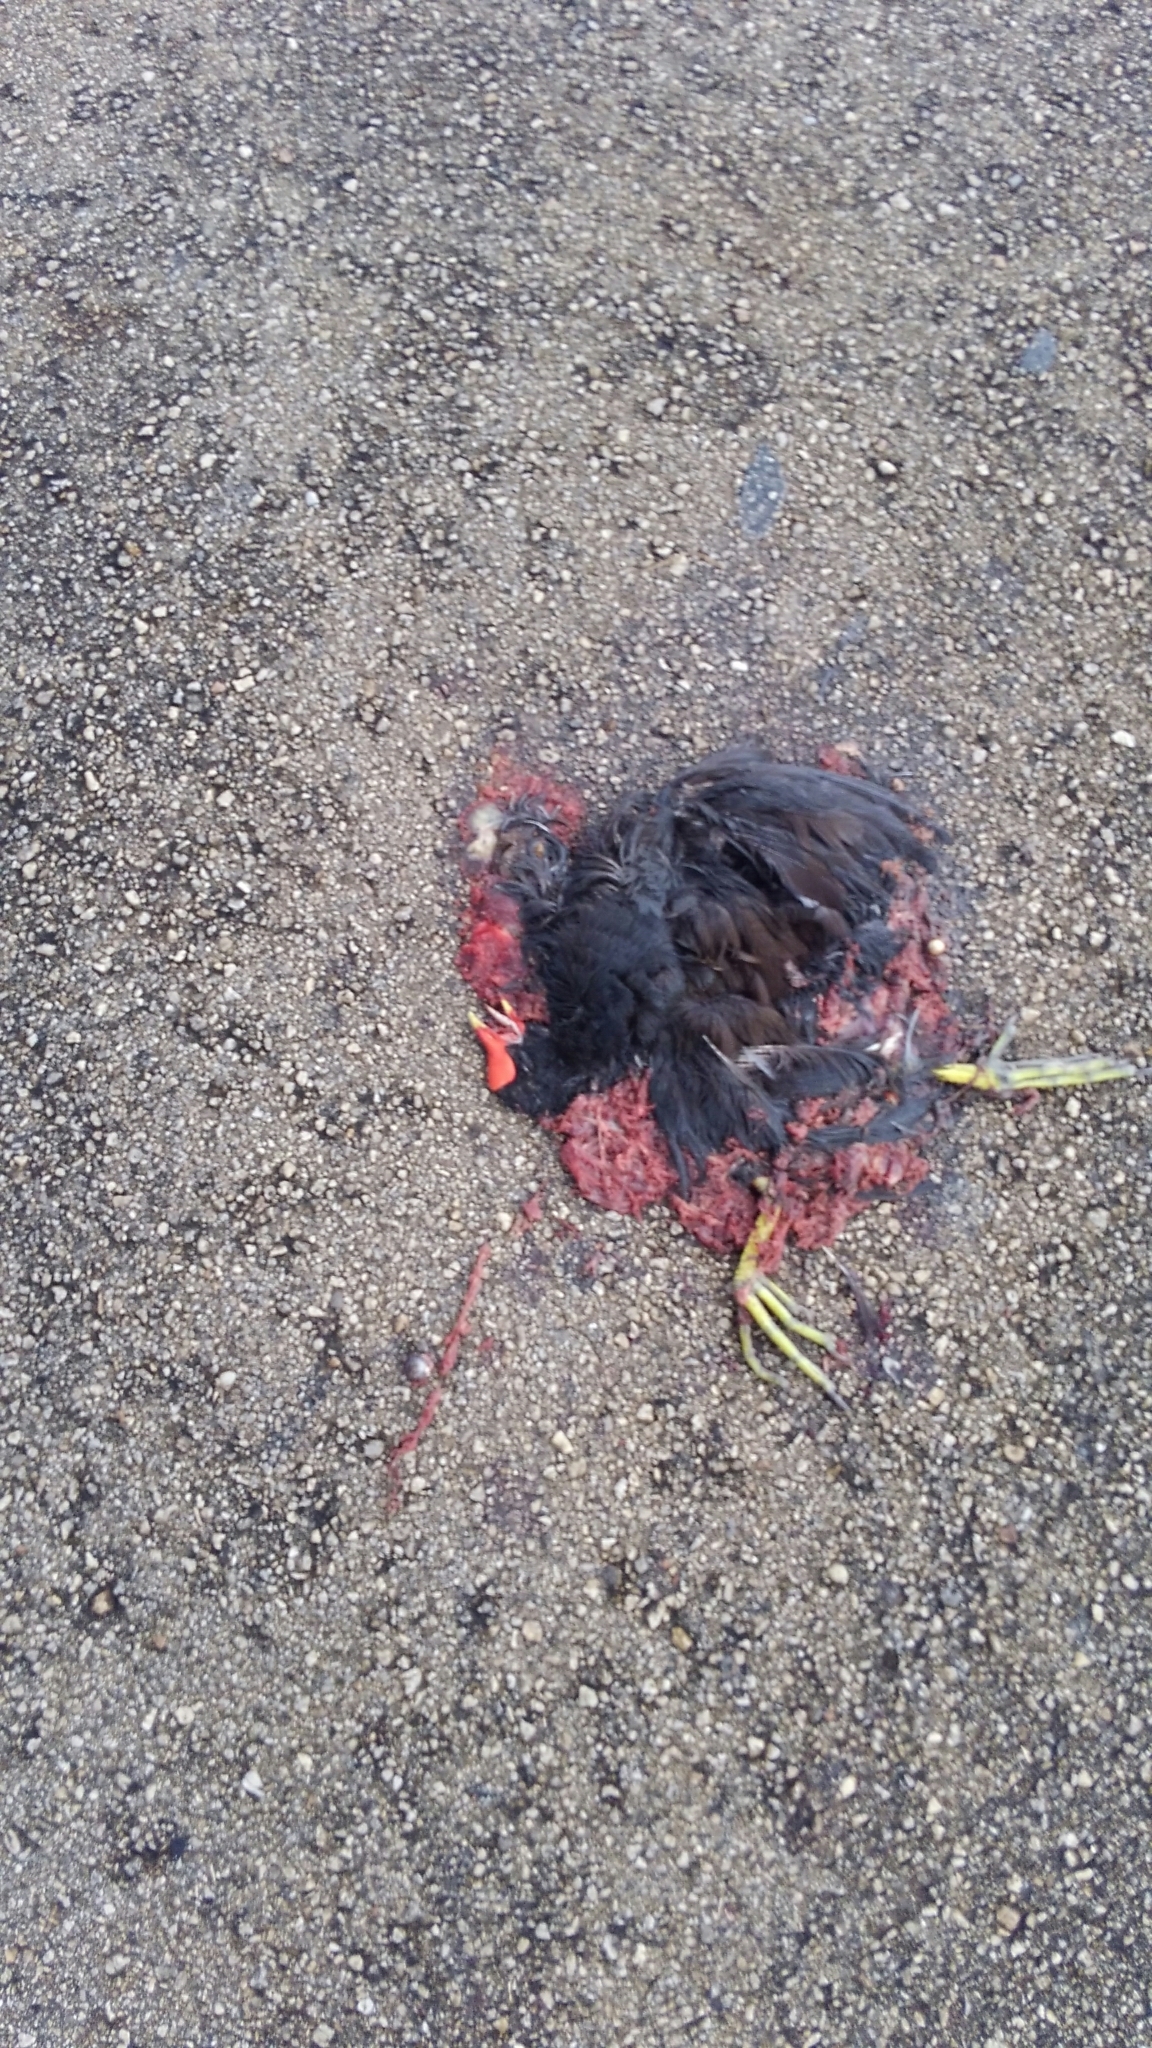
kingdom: Animalia
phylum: Chordata
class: Aves
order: Gruiformes
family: Rallidae
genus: Gallinula
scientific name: Gallinula chloropus
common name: Common moorhen
